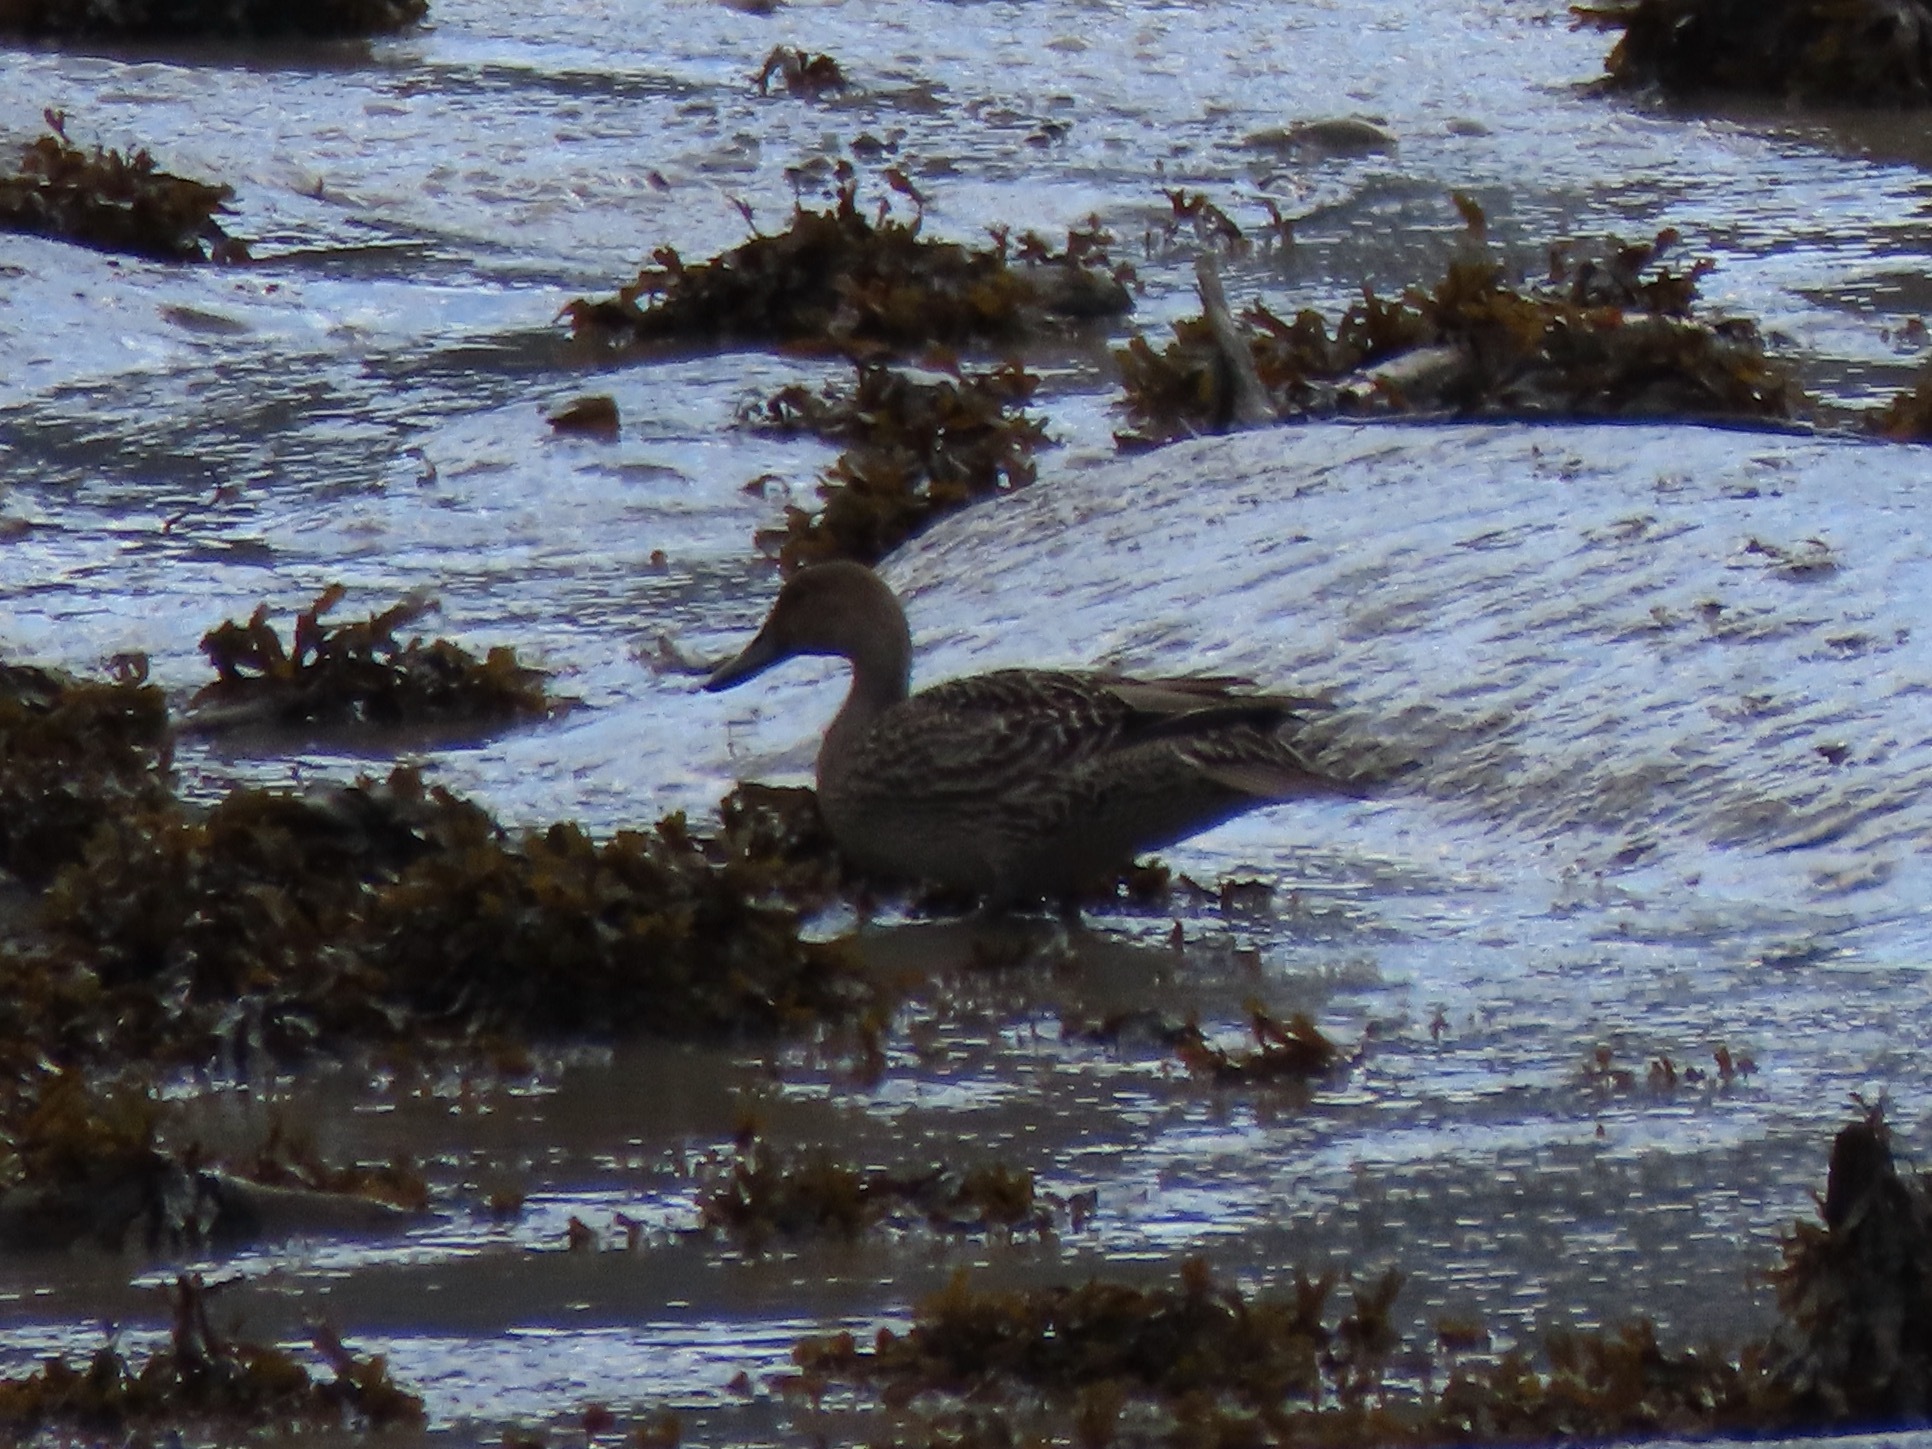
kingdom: Animalia
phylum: Chordata
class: Aves
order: Anseriformes
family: Anatidae
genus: Anas
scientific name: Anas acuta
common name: Northern pintail
